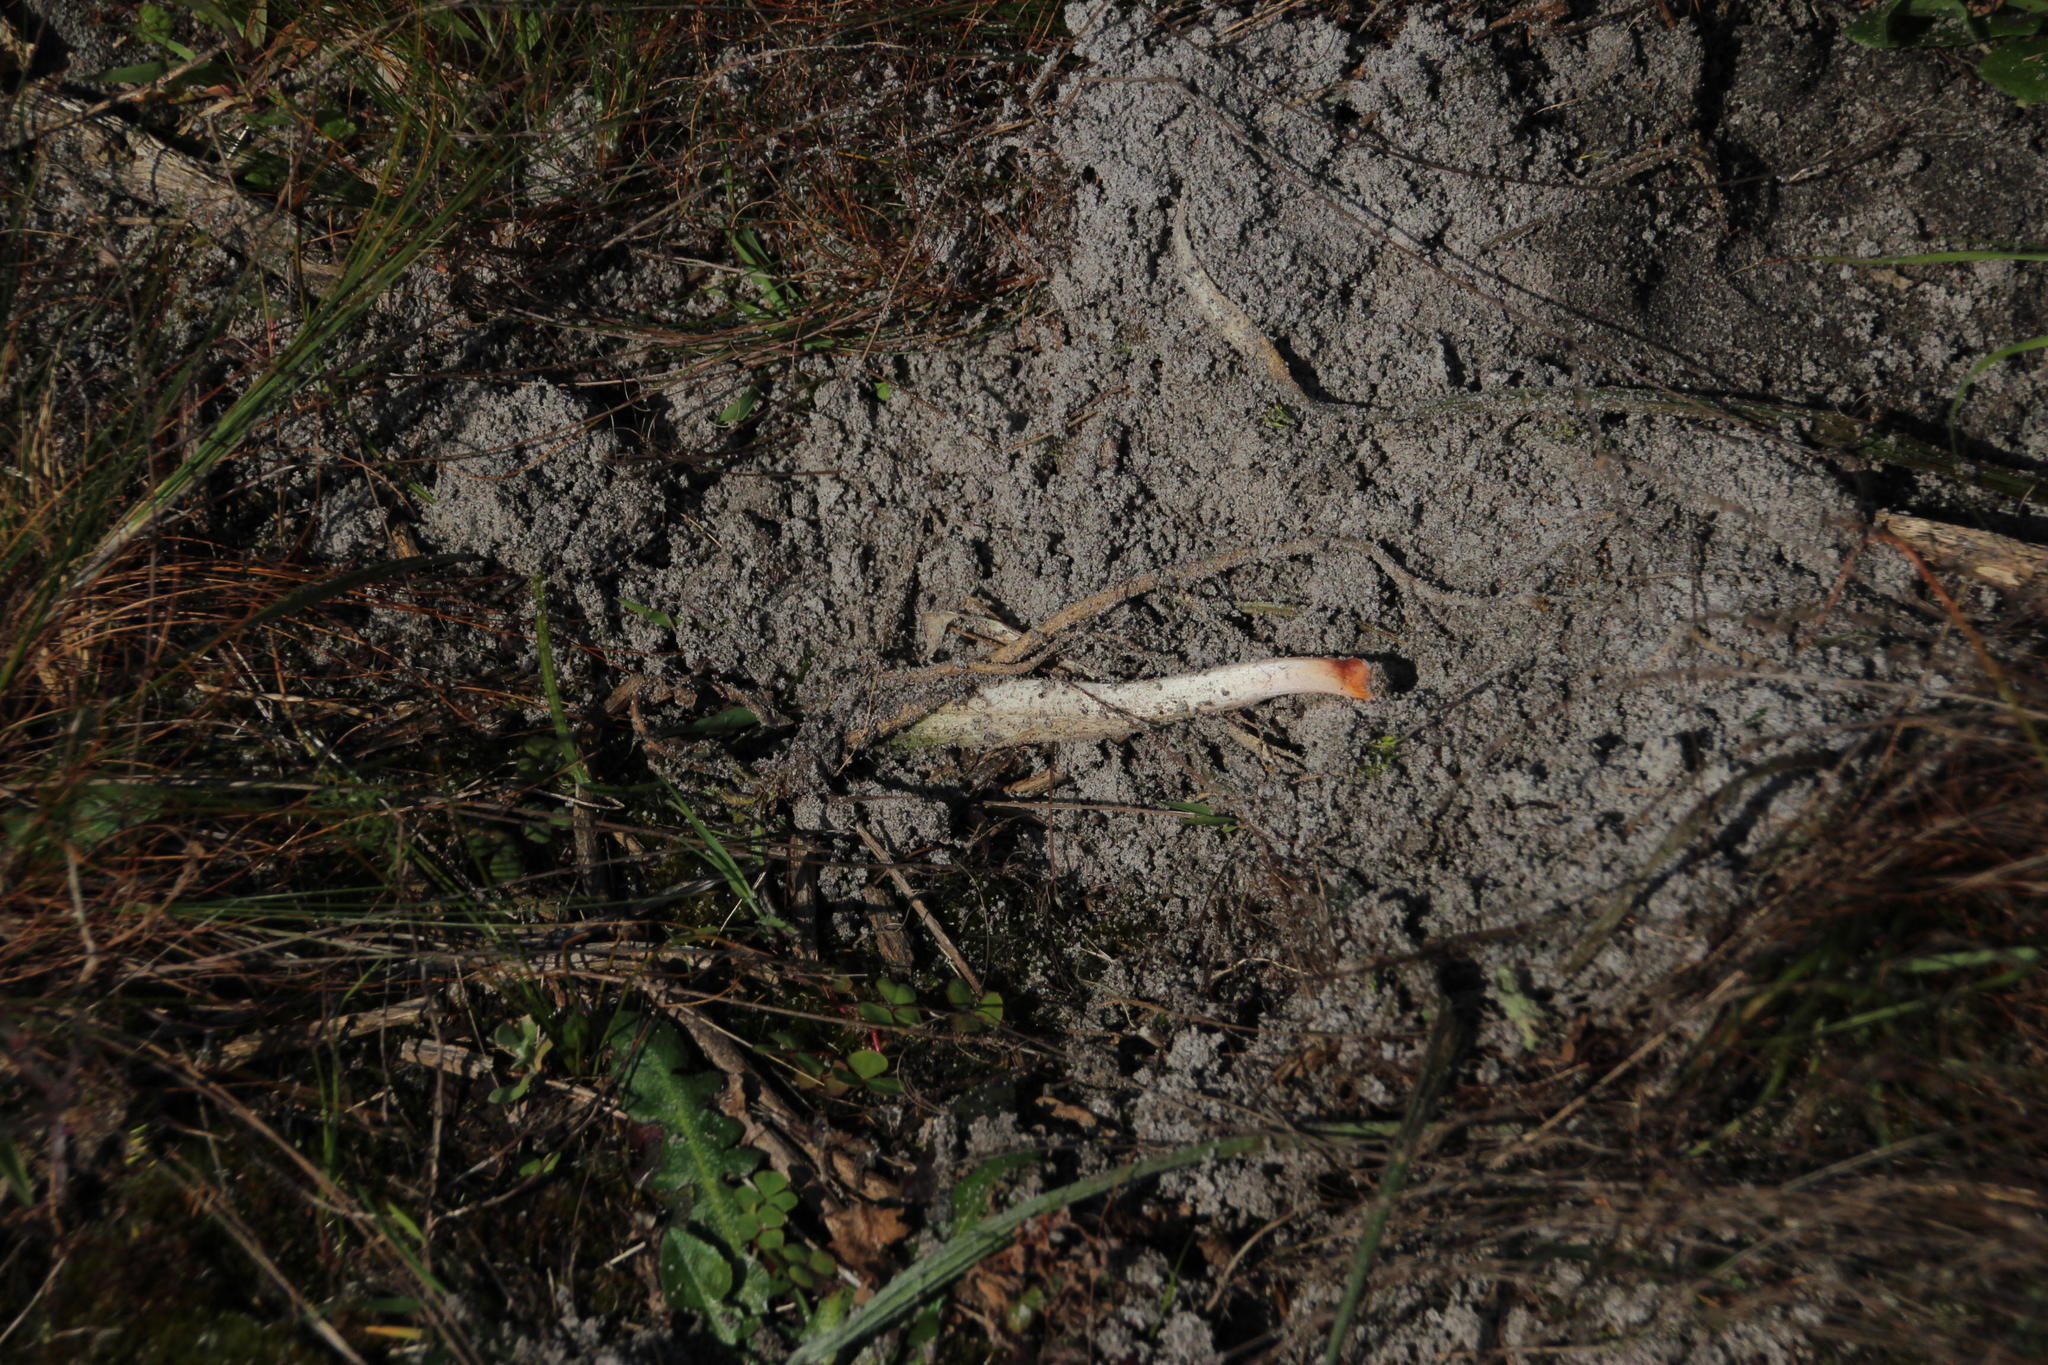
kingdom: Plantae
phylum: Tracheophyta
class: Liliopsida
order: Commelinales
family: Haemodoraceae
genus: Wachendorfia
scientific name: Wachendorfia paniculata
